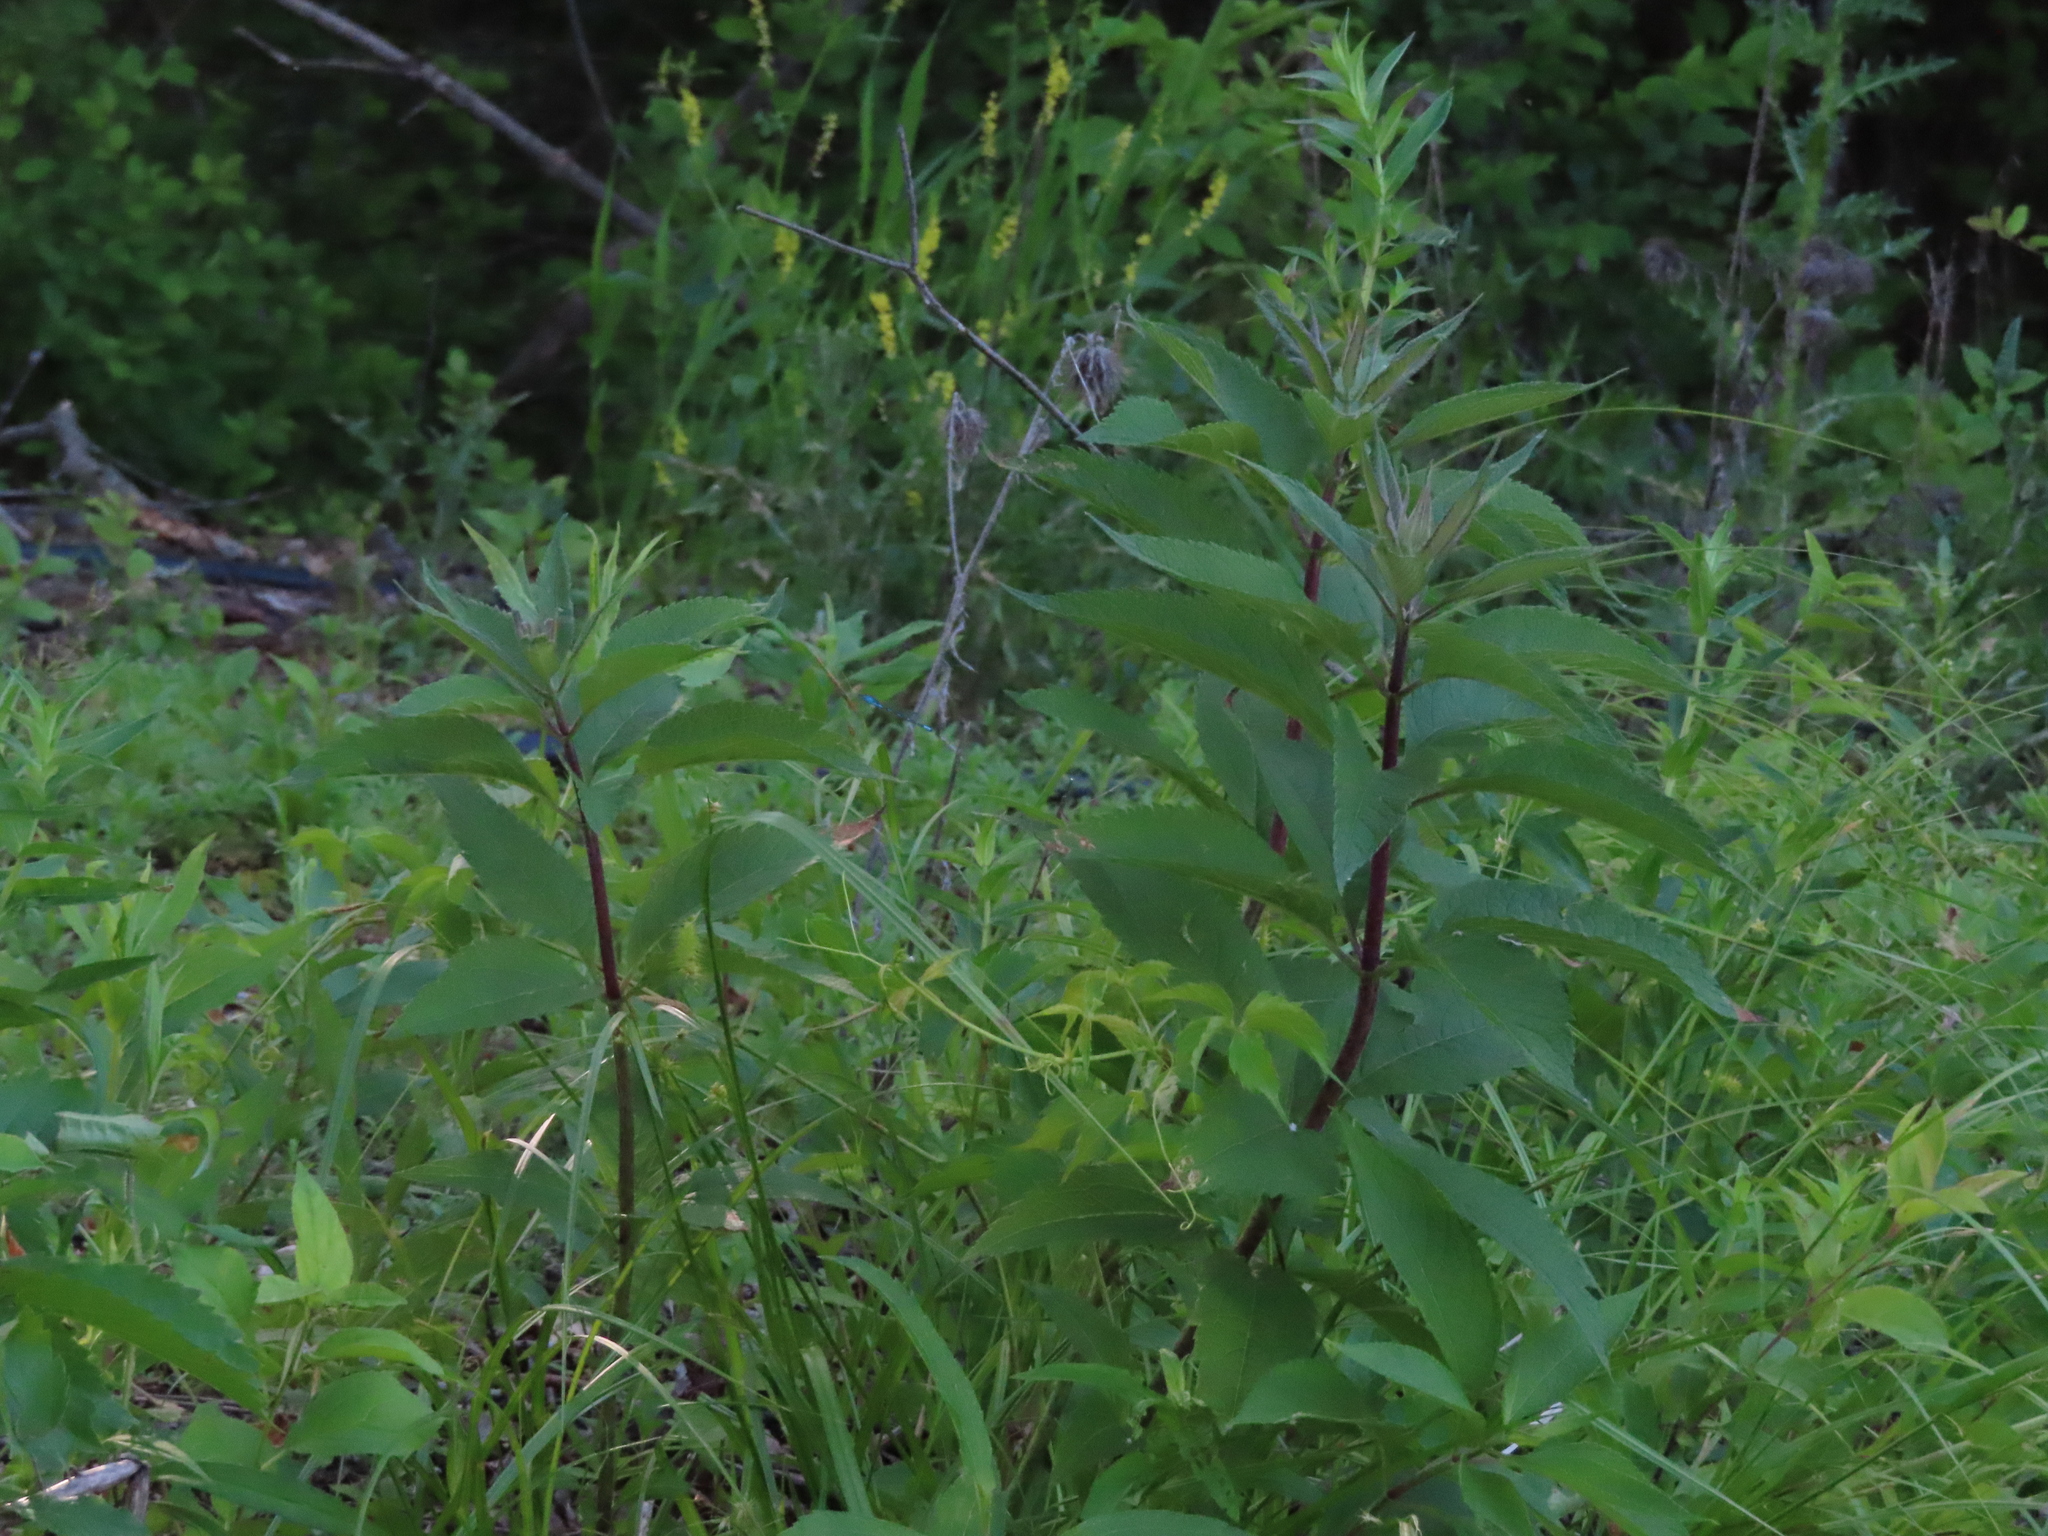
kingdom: Plantae
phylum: Tracheophyta
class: Magnoliopsida
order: Asterales
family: Asteraceae
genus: Eutrochium
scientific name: Eutrochium maculatum
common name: Spotted joe pye weed
